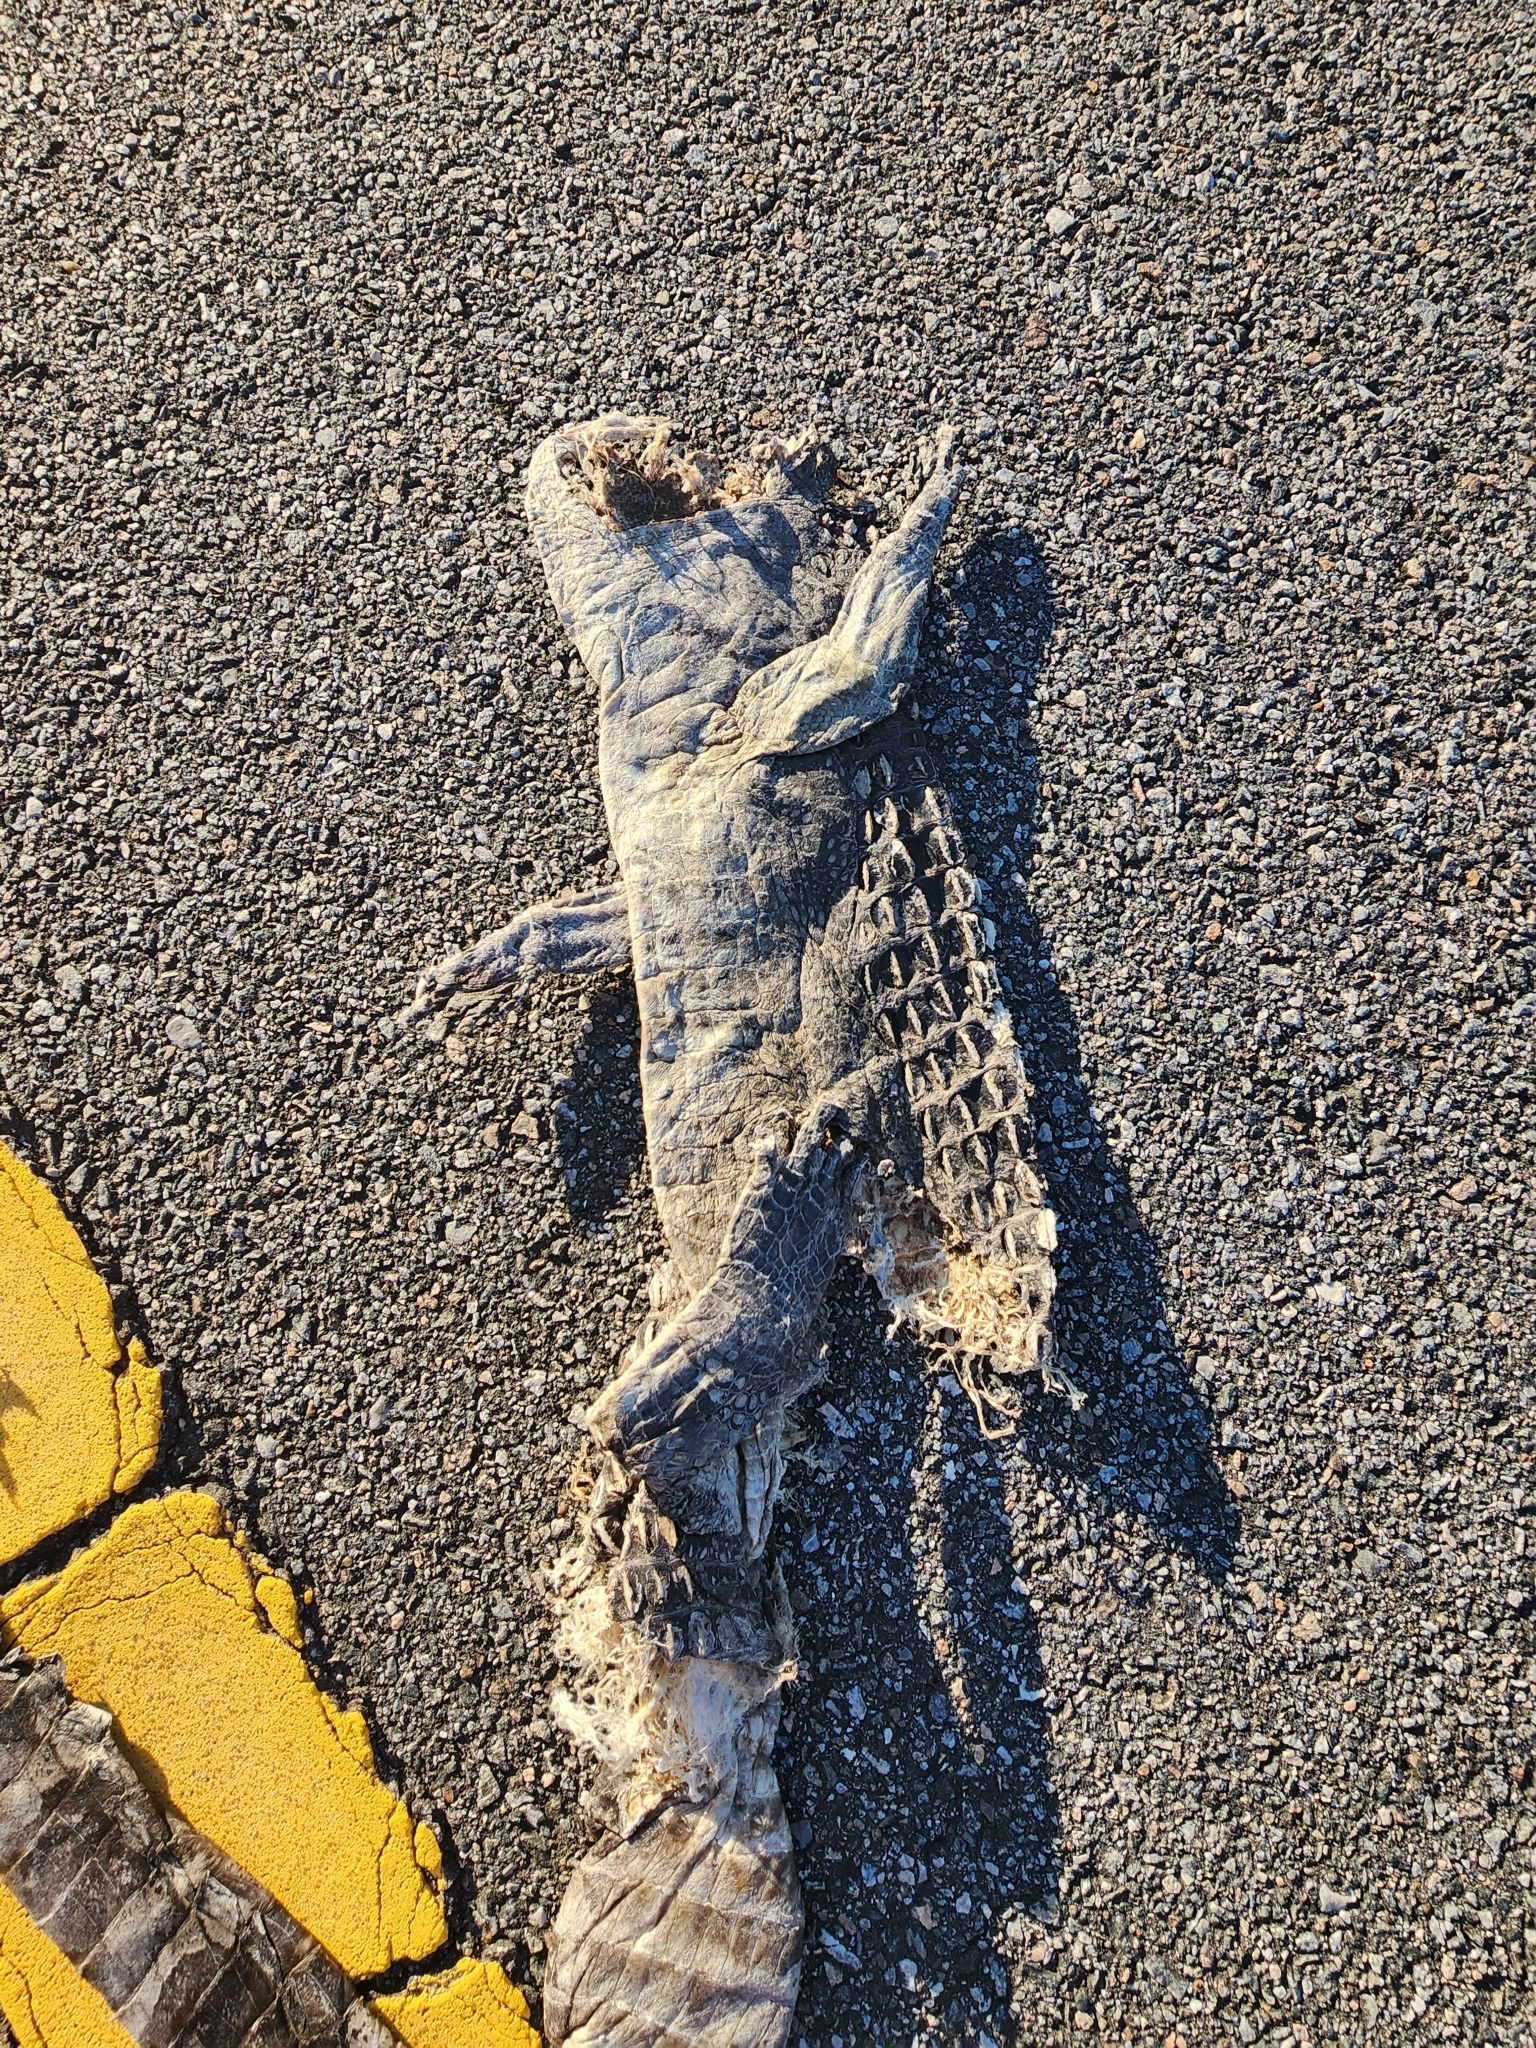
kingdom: Animalia
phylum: Chordata
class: Crocodylia
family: Alligatoridae
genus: Alligator
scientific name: Alligator mississippiensis
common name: American alligator
